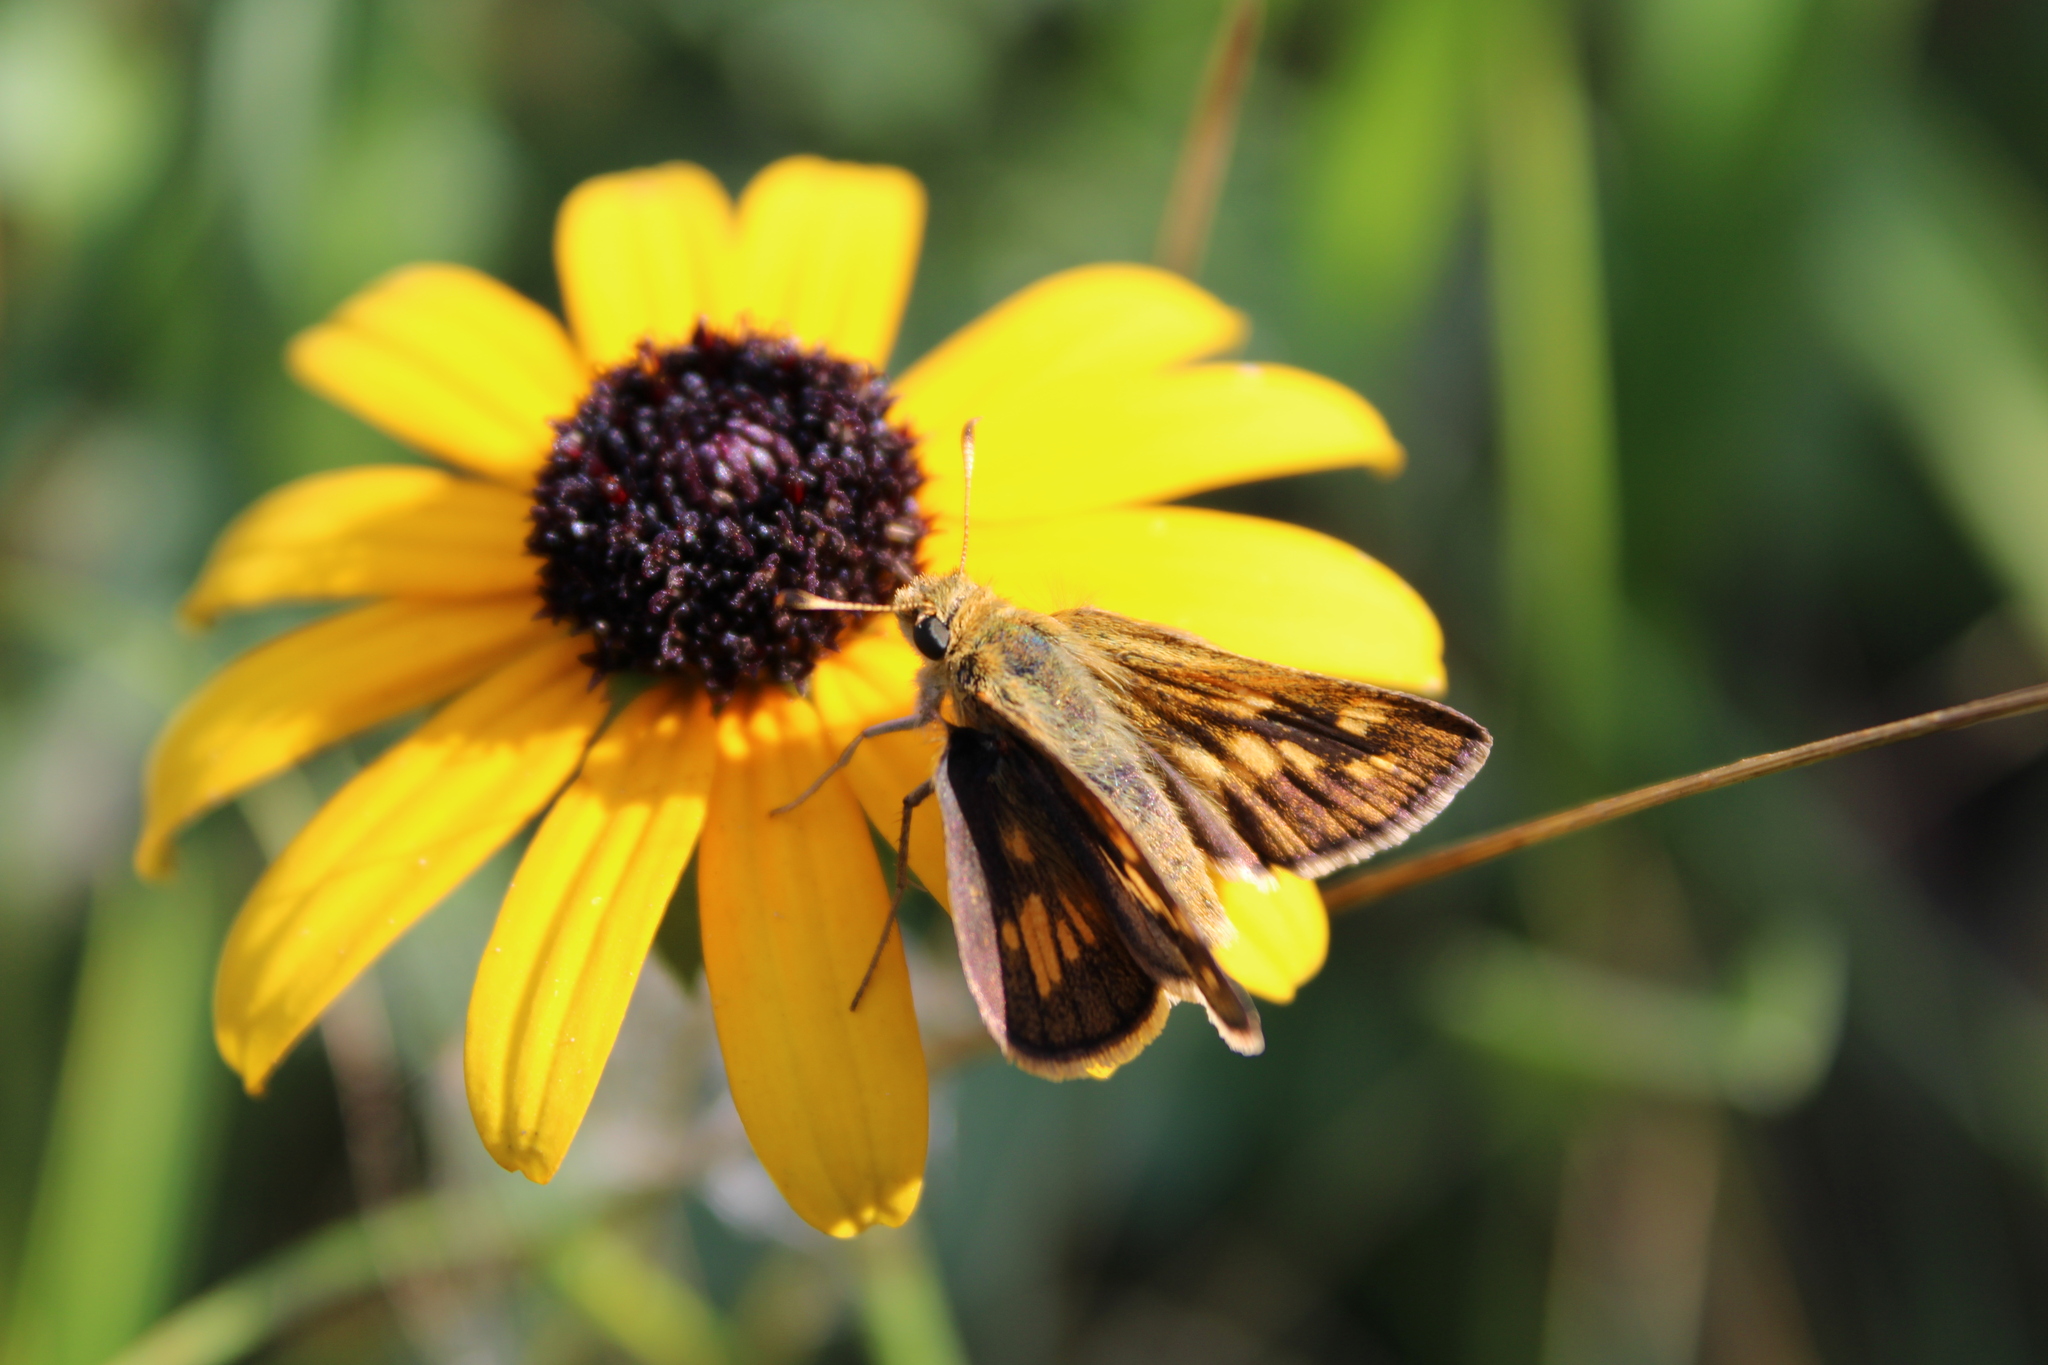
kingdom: Animalia
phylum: Arthropoda
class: Insecta
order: Lepidoptera
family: Hesperiidae
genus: Polites
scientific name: Polites coras
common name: Peck's skipper
